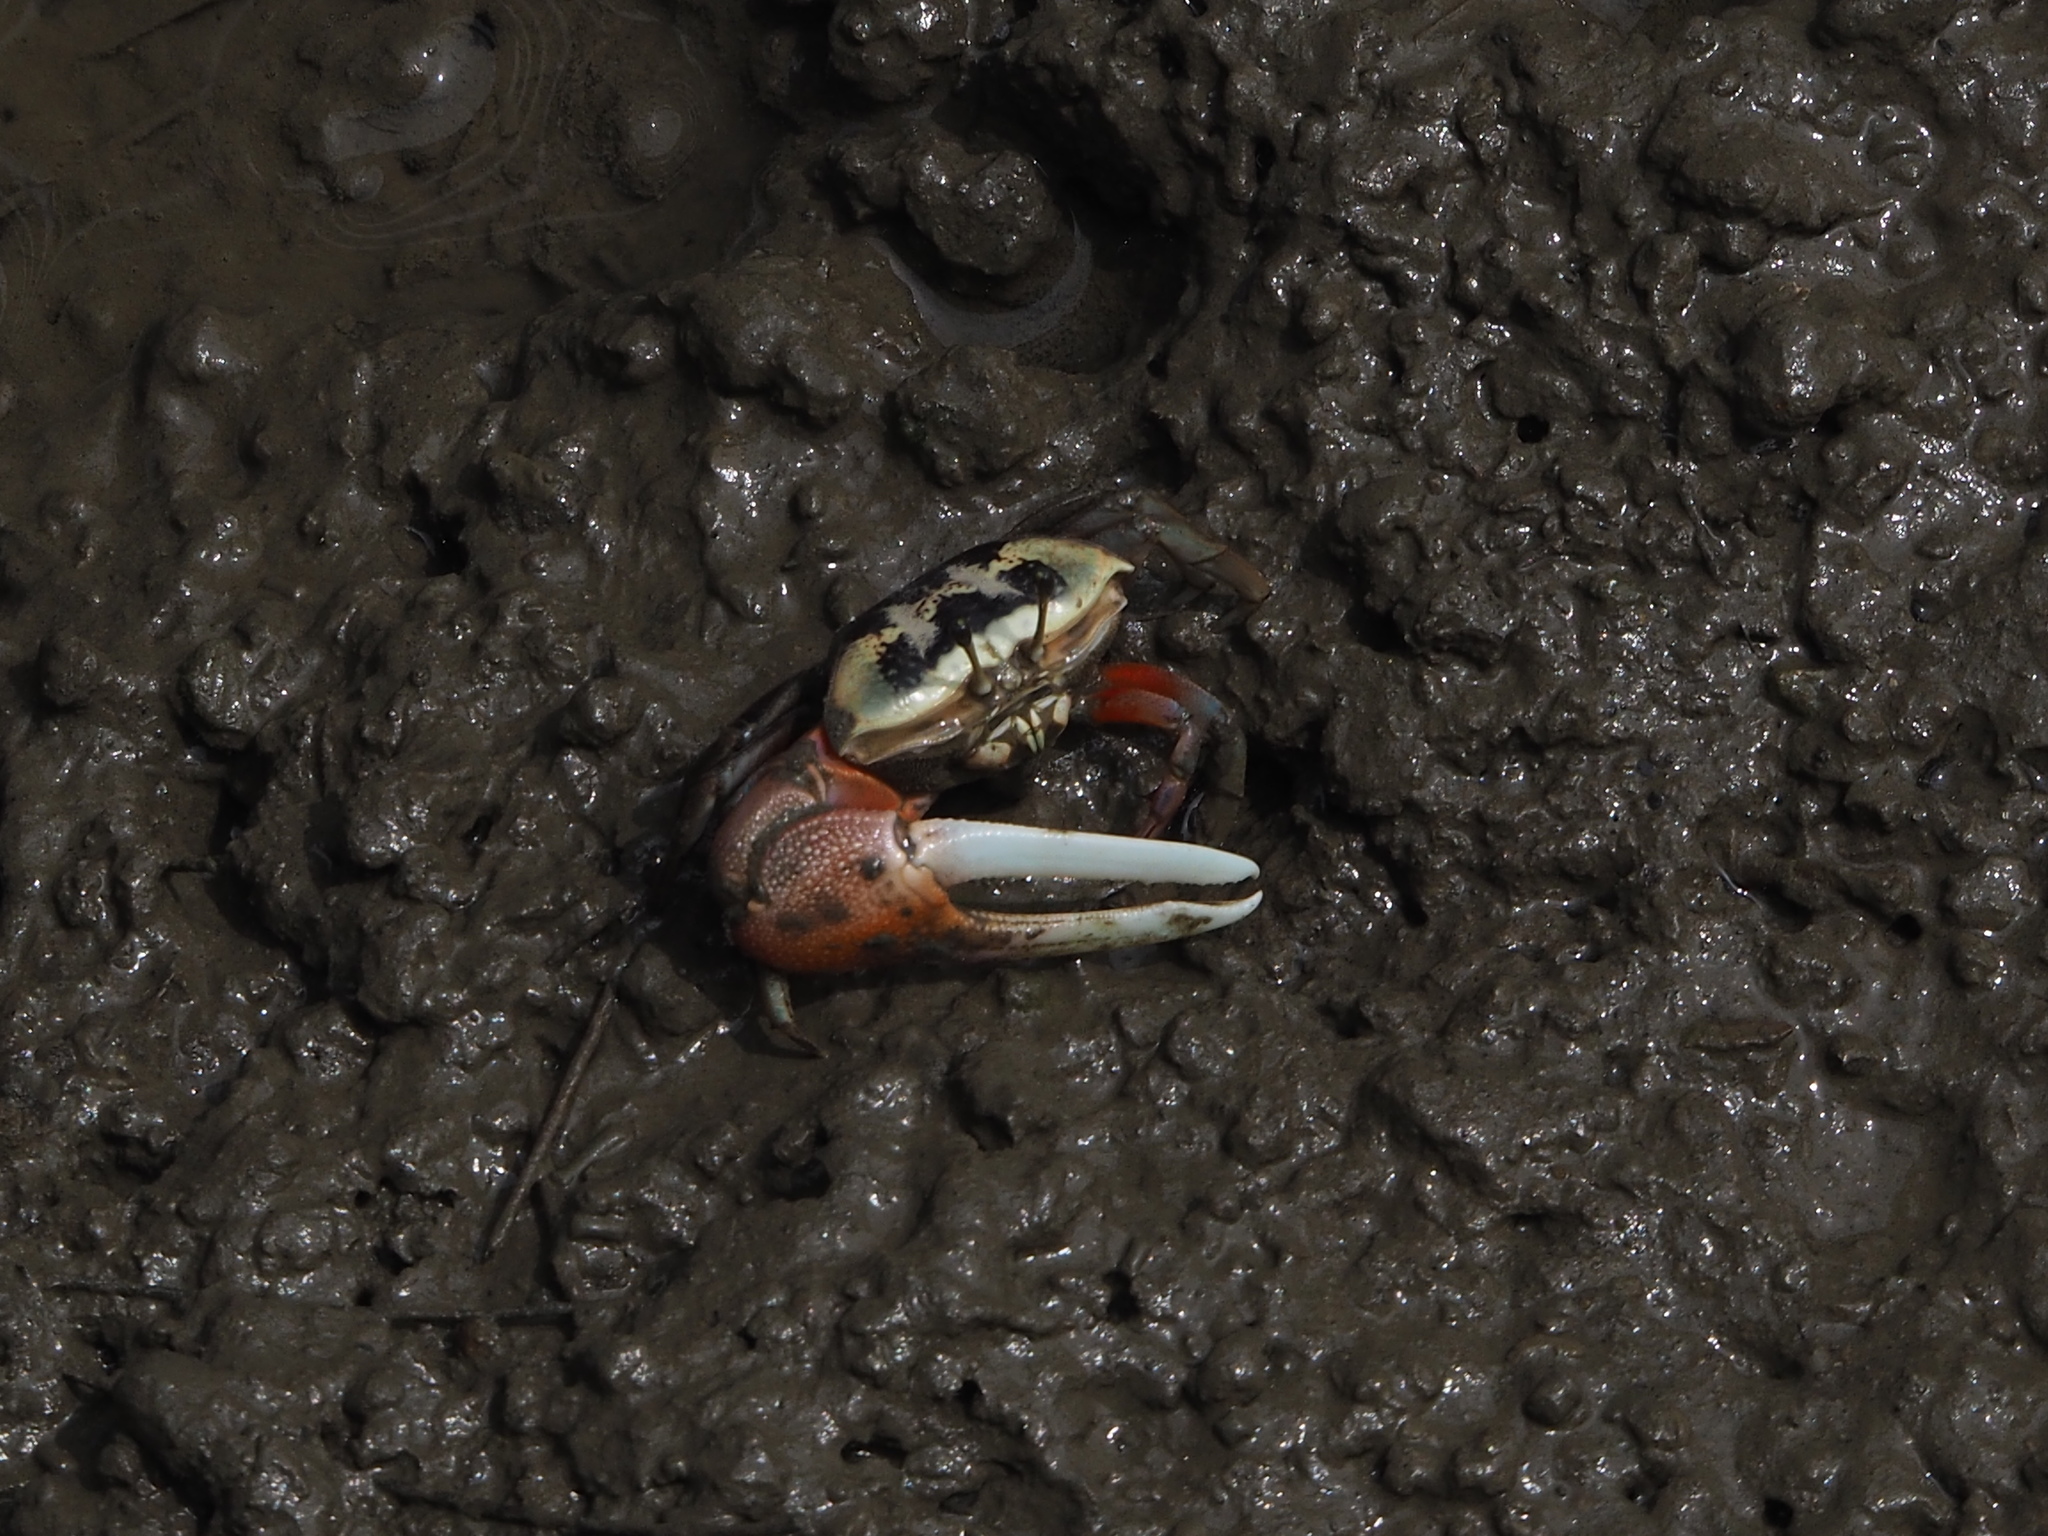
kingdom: Animalia
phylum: Arthropoda
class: Malacostraca
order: Decapoda
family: Ocypodidae
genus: Tubuca
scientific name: Tubuca arcuata
